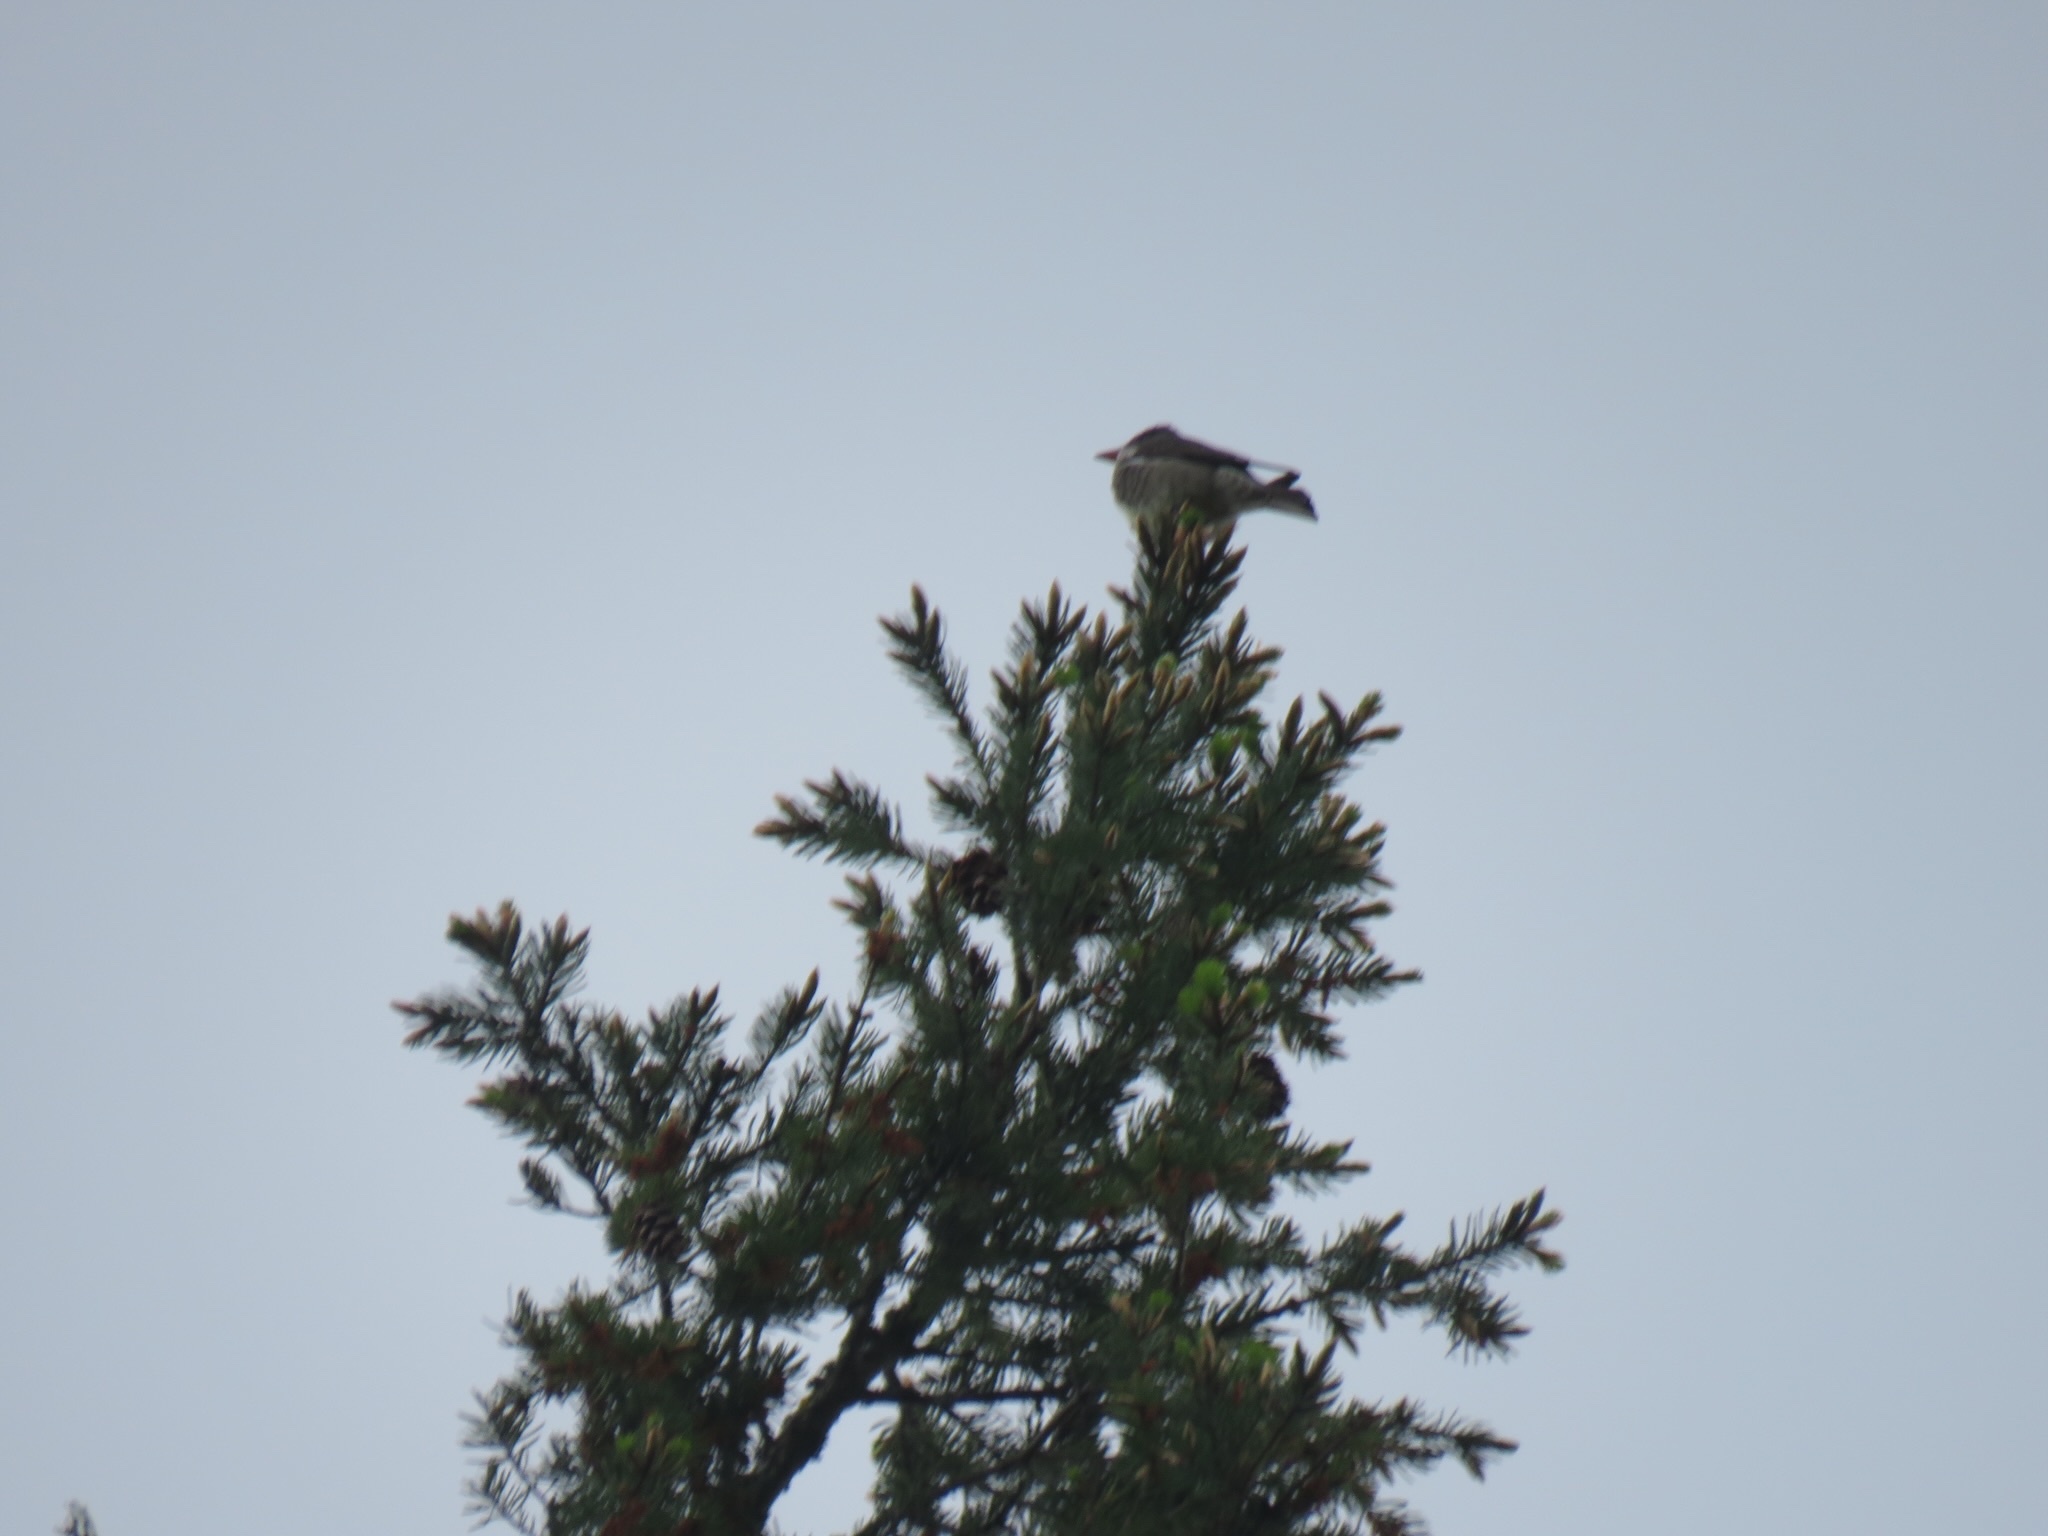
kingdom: Animalia
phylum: Chordata
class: Aves
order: Passeriformes
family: Tyrannidae
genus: Contopus
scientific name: Contopus cooperi
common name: Olive-sided flycatcher
